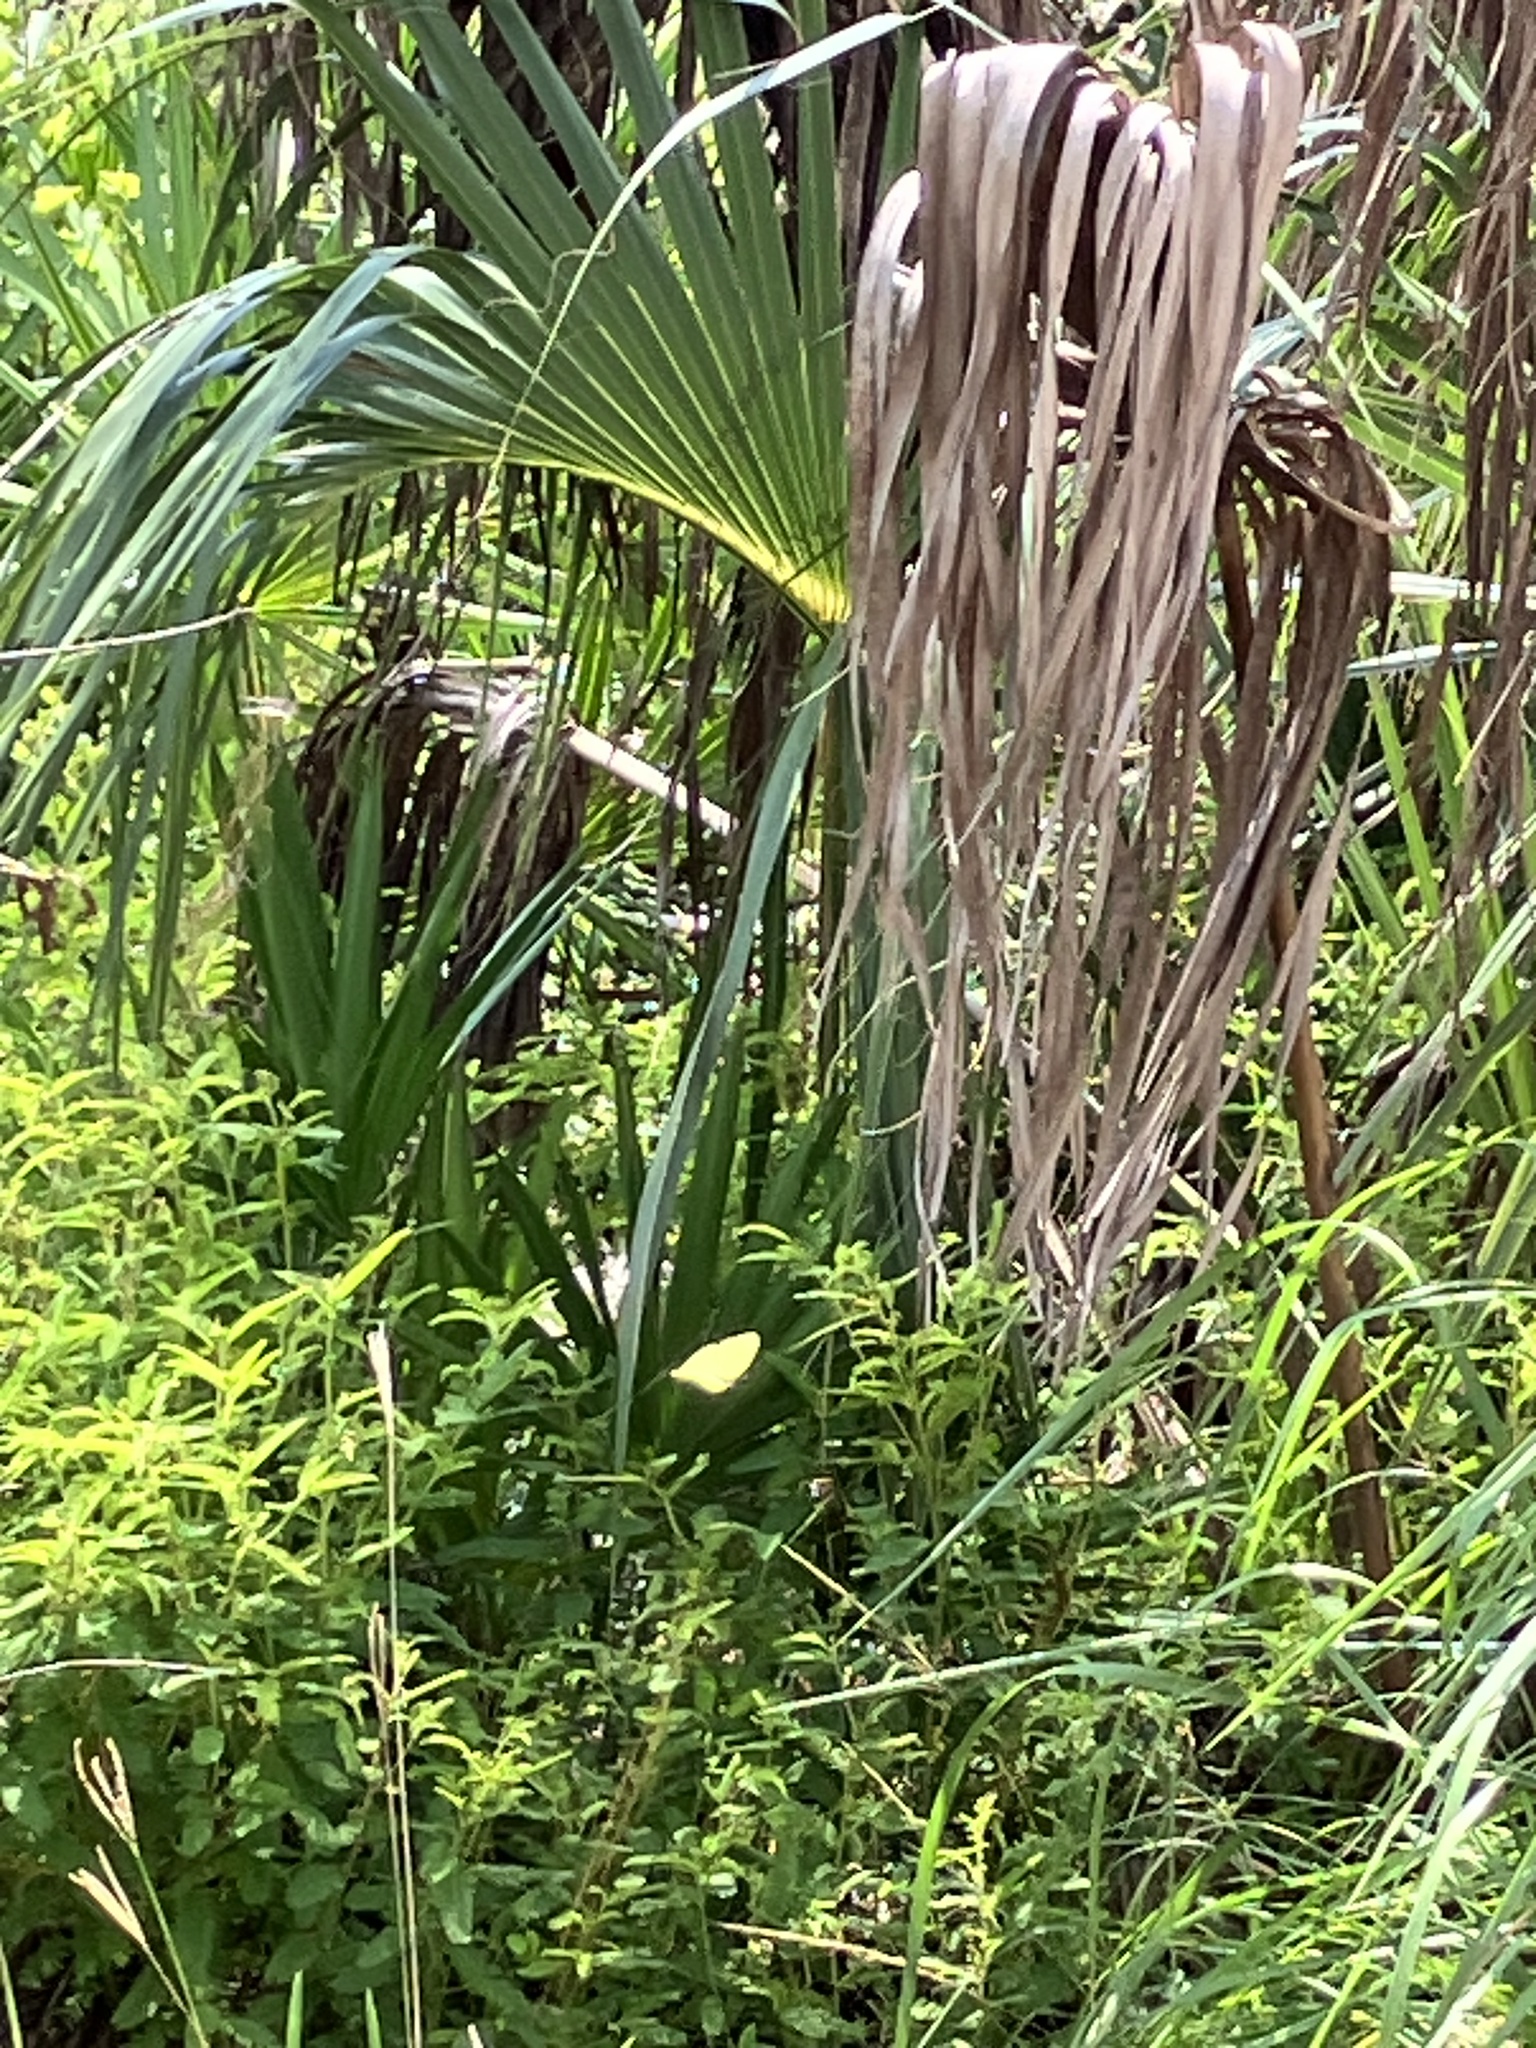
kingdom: Animalia
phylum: Arthropoda
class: Insecta
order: Lepidoptera
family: Pieridae
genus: Phoebis
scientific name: Phoebis sennae
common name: Cloudless sulphur
